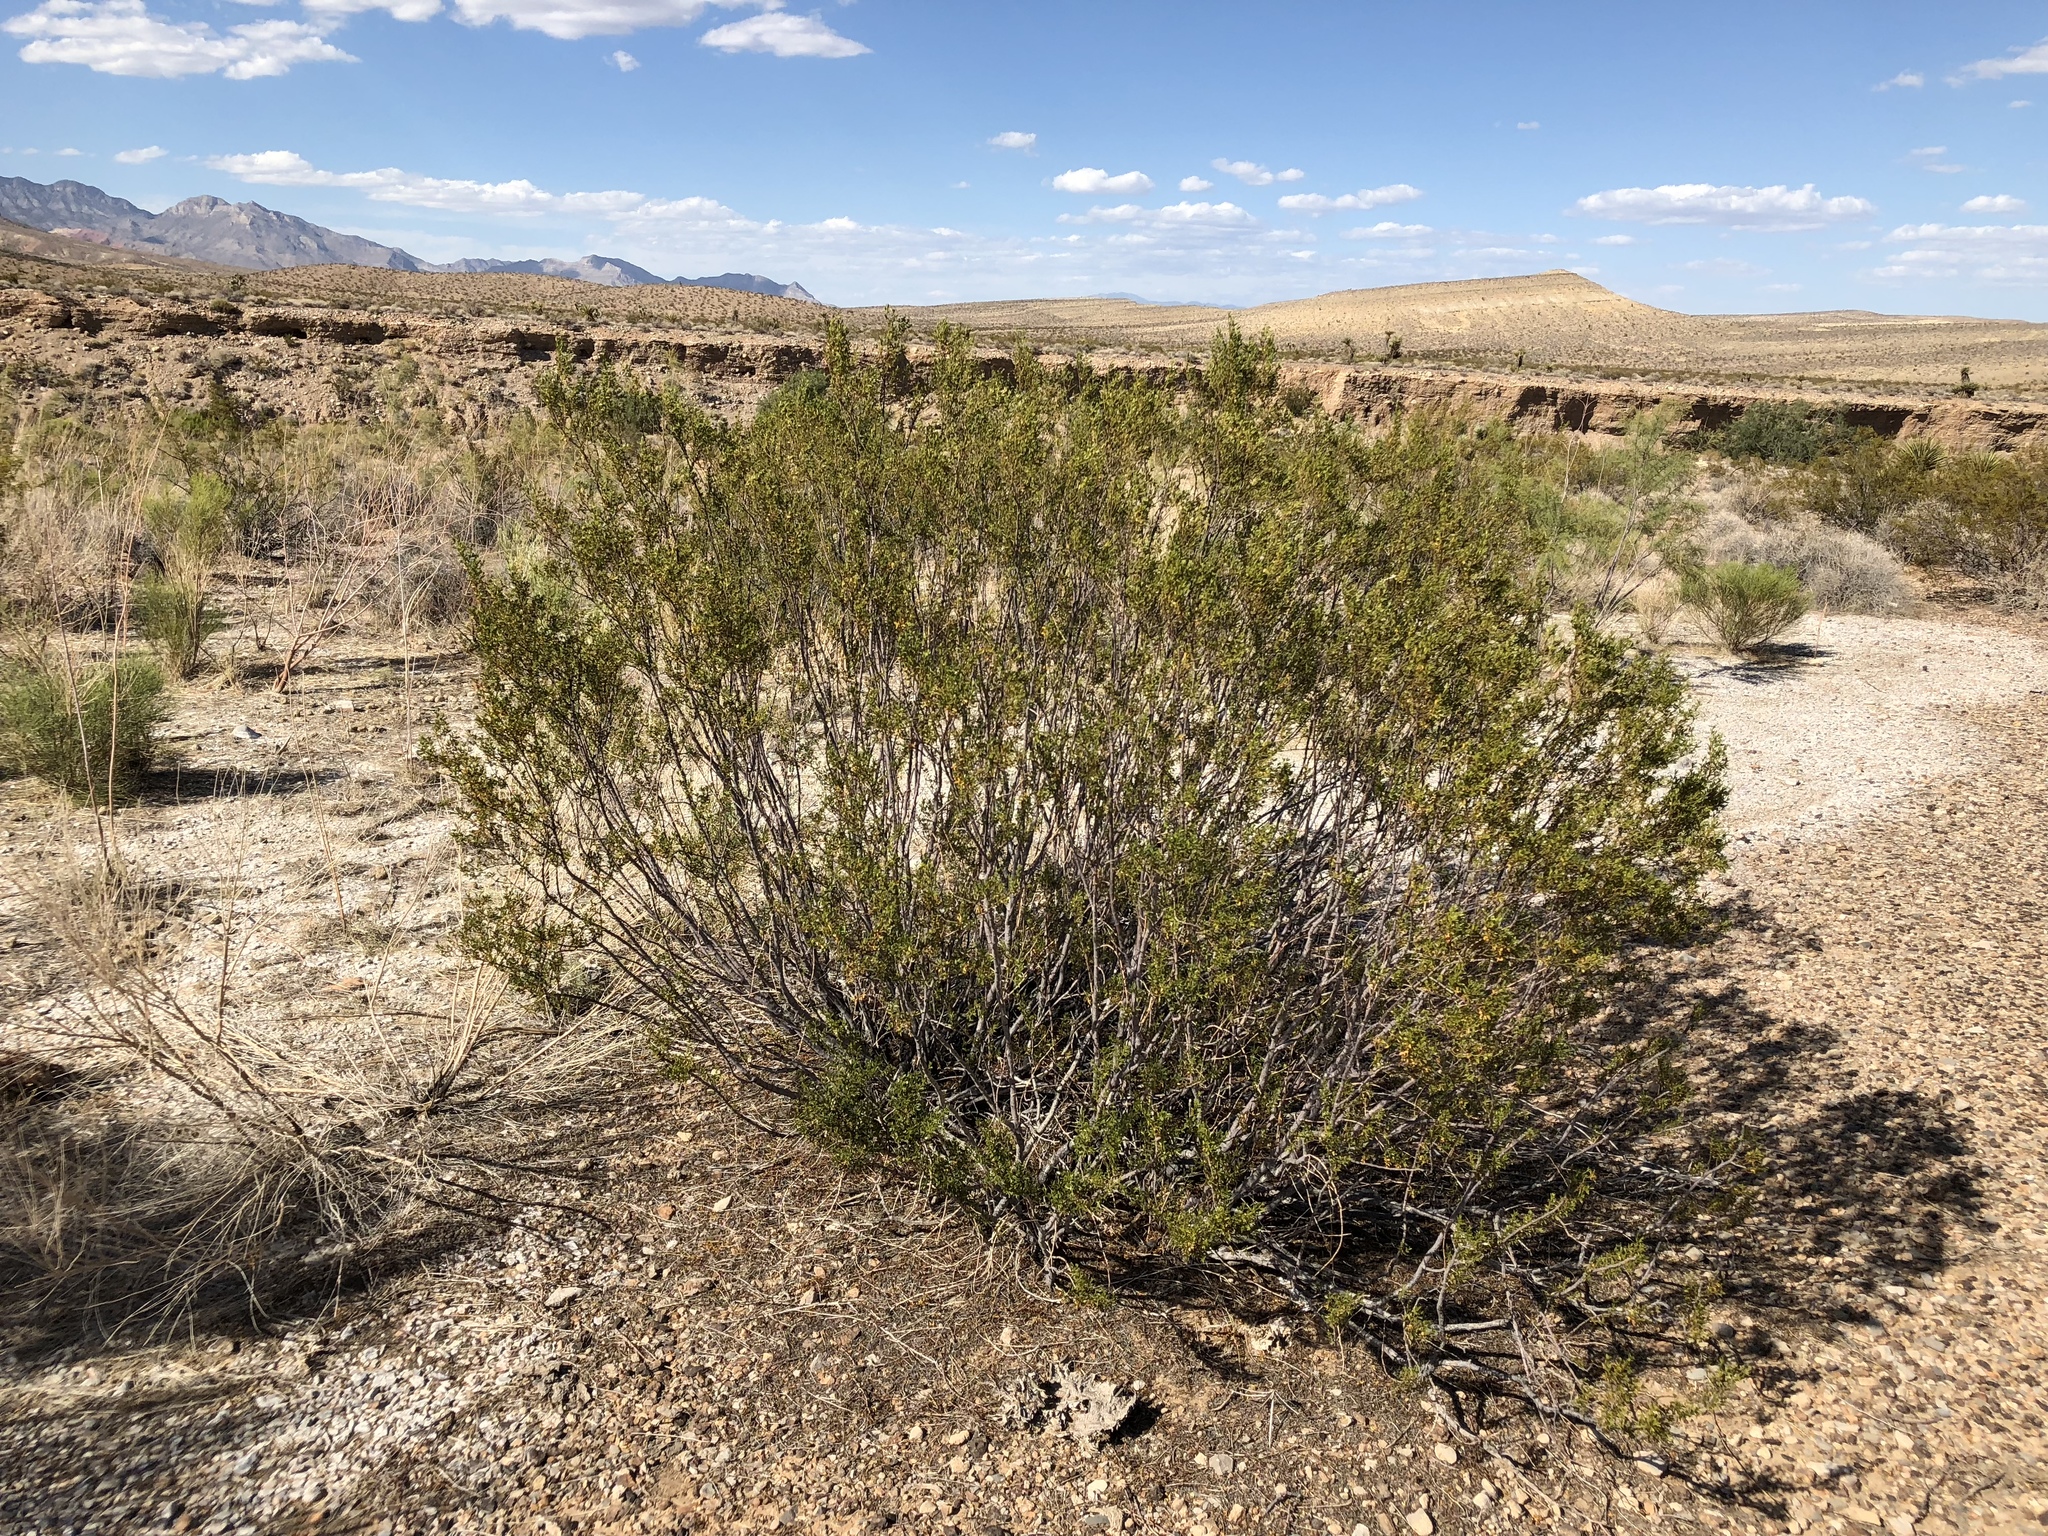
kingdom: Plantae
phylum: Tracheophyta
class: Magnoliopsida
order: Zygophyllales
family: Zygophyllaceae
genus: Larrea
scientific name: Larrea tridentata
